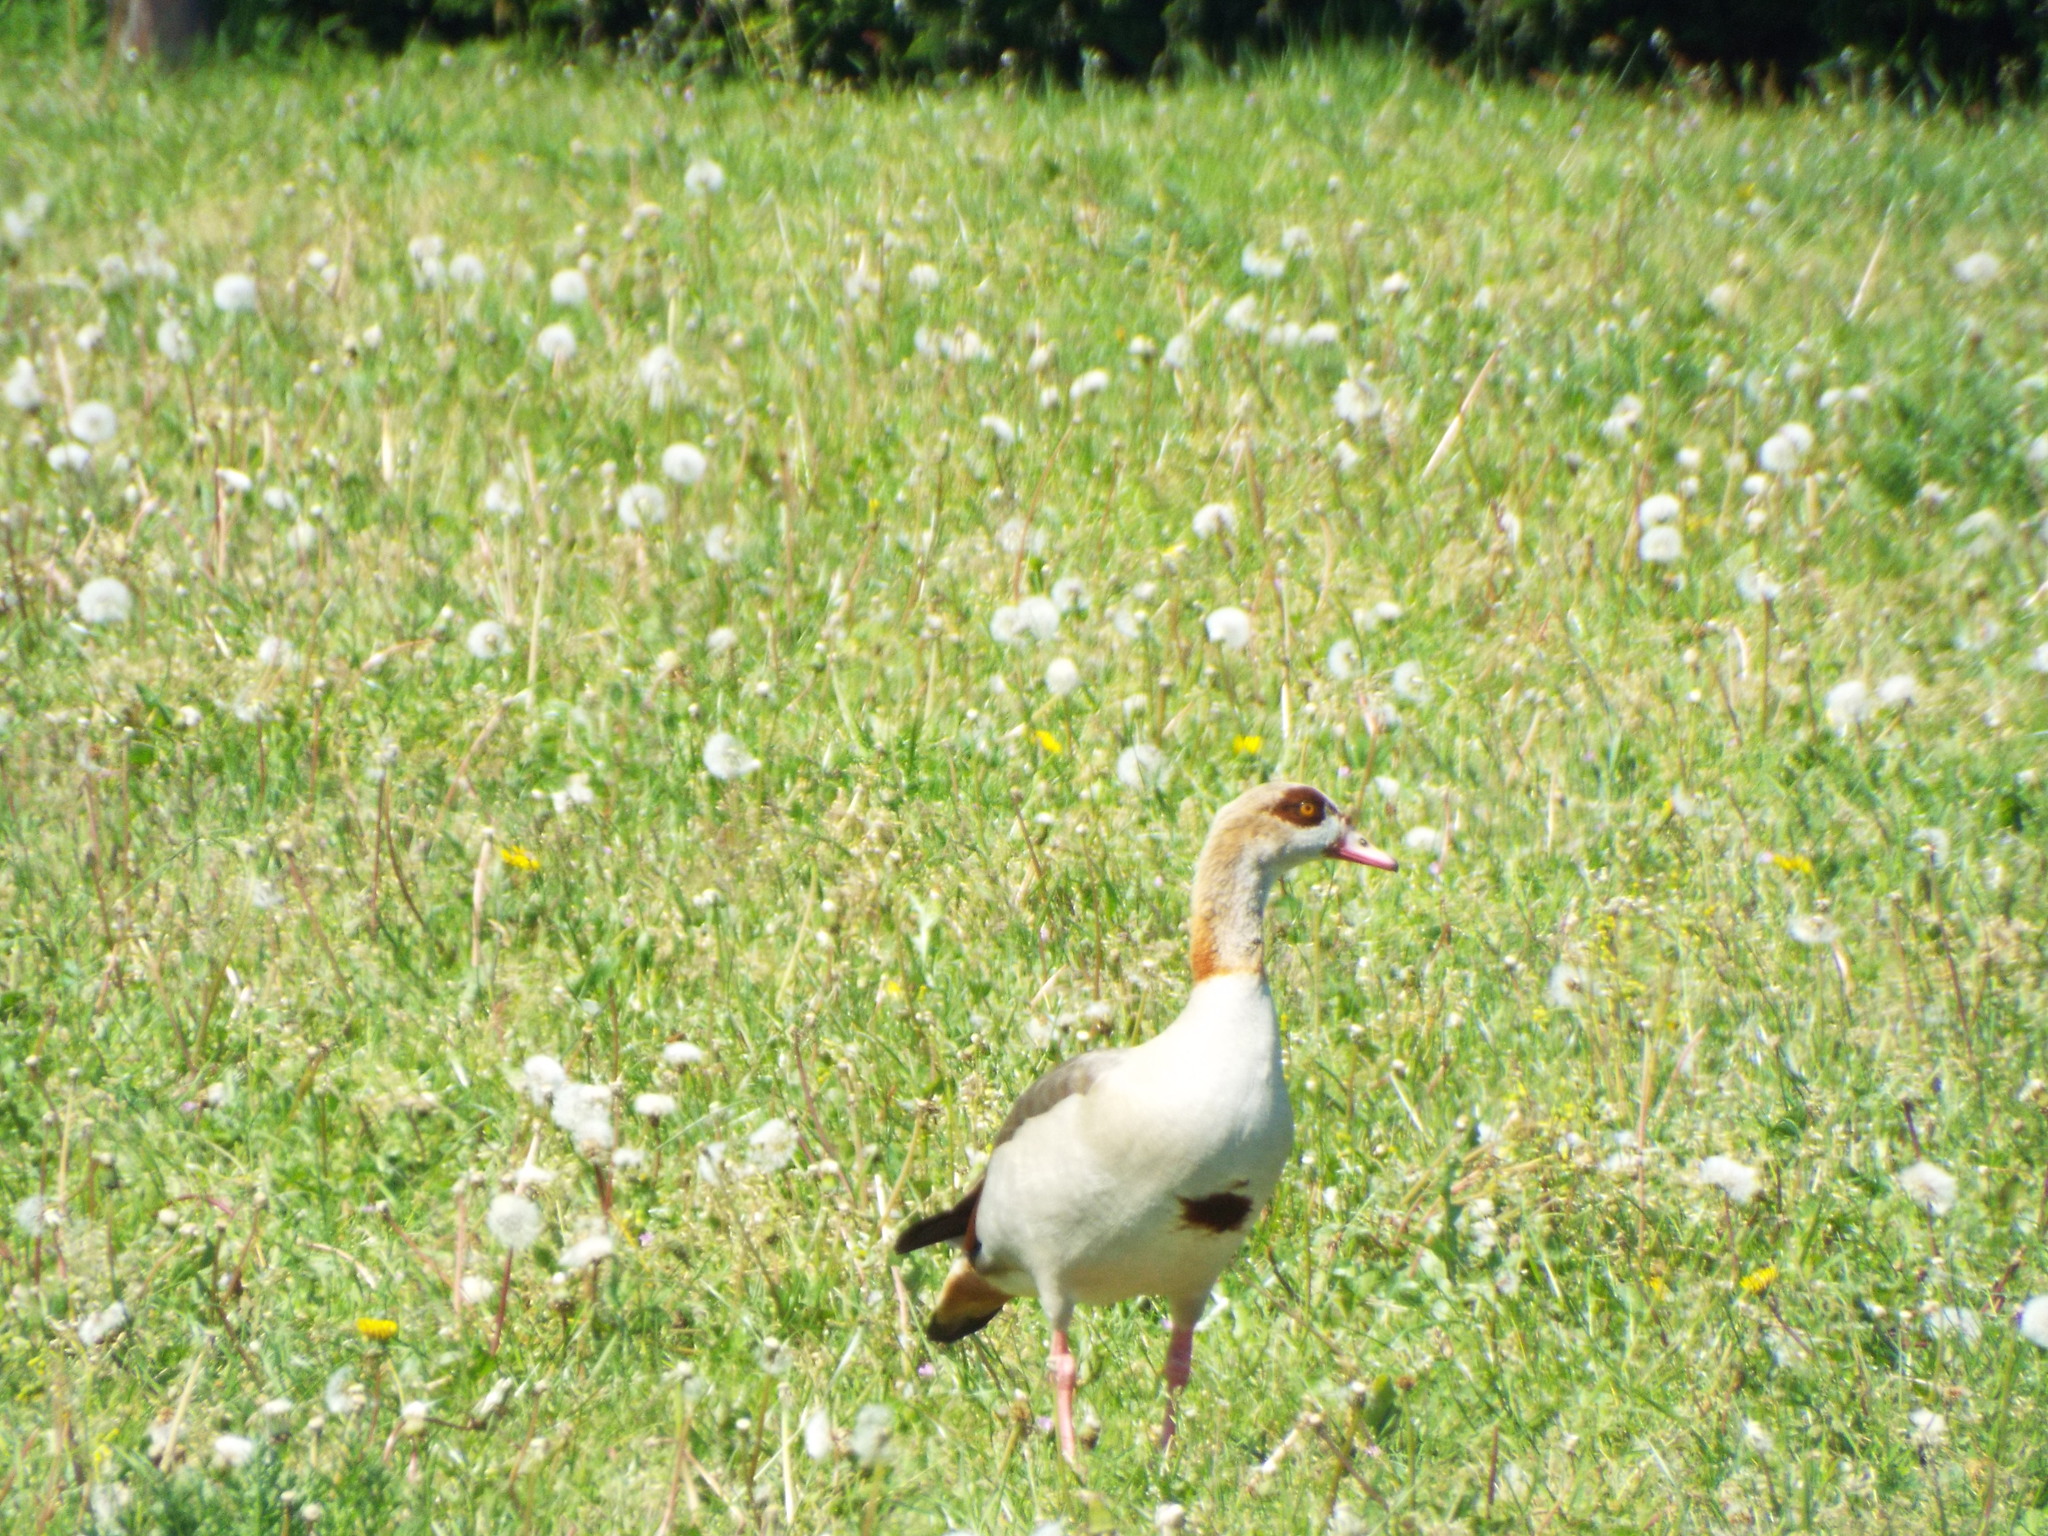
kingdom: Animalia
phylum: Chordata
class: Aves
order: Anseriformes
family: Anatidae
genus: Alopochen
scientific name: Alopochen aegyptiaca
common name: Egyptian goose
